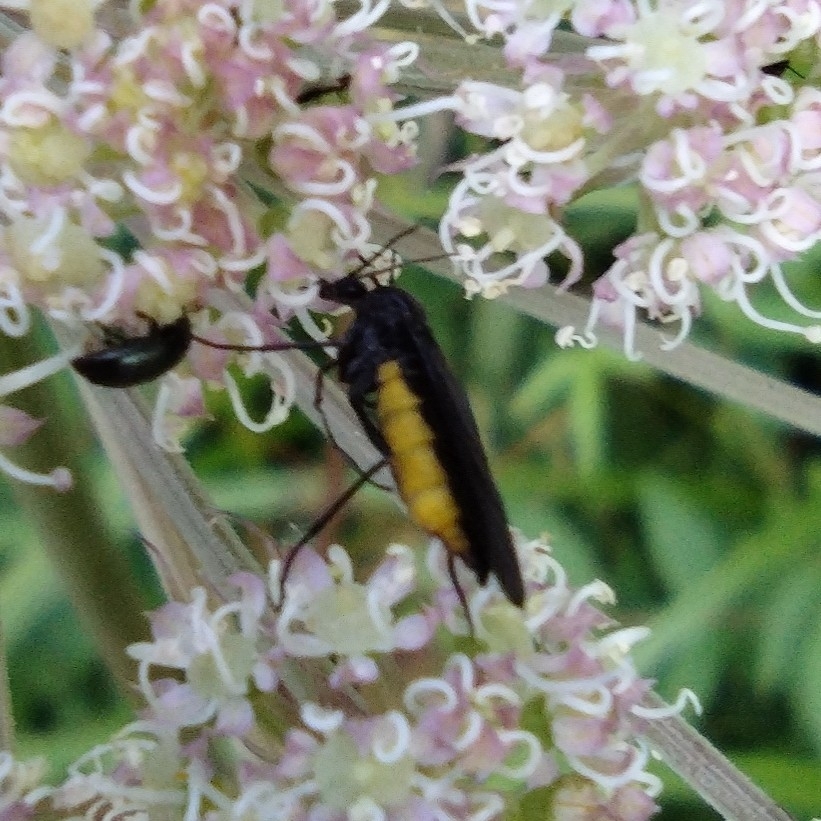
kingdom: Animalia
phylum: Arthropoda
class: Insecta
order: Diptera
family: Sciaridae
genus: Sciara
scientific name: Sciara hemerobioides
